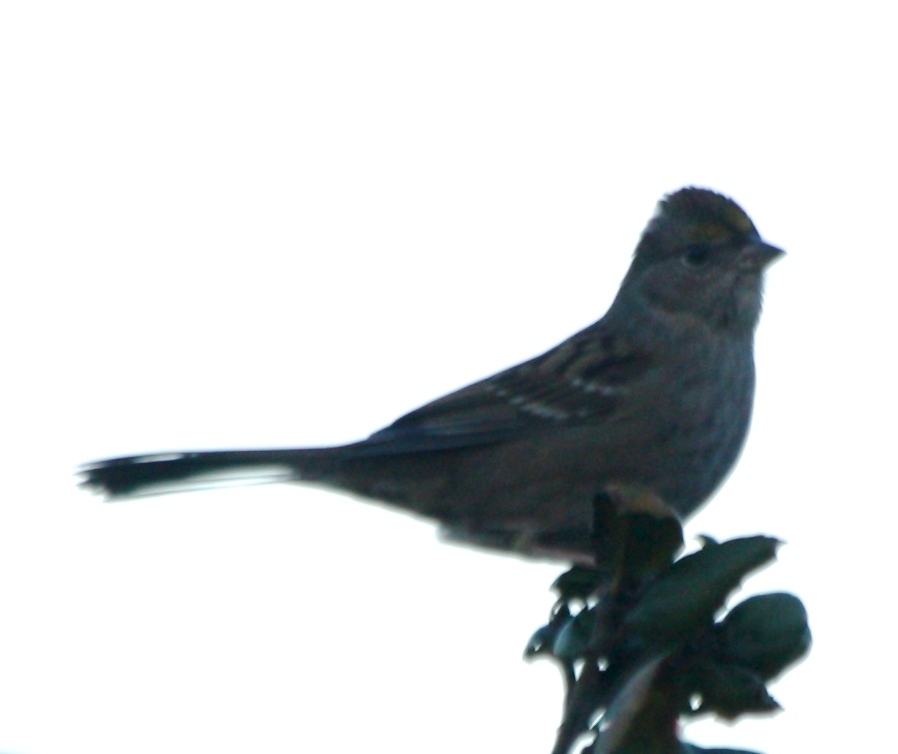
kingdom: Animalia
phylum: Chordata
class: Aves
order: Passeriformes
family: Passerellidae
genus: Zonotrichia
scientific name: Zonotrichia atricapilla
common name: Golden-crowned sparrow
